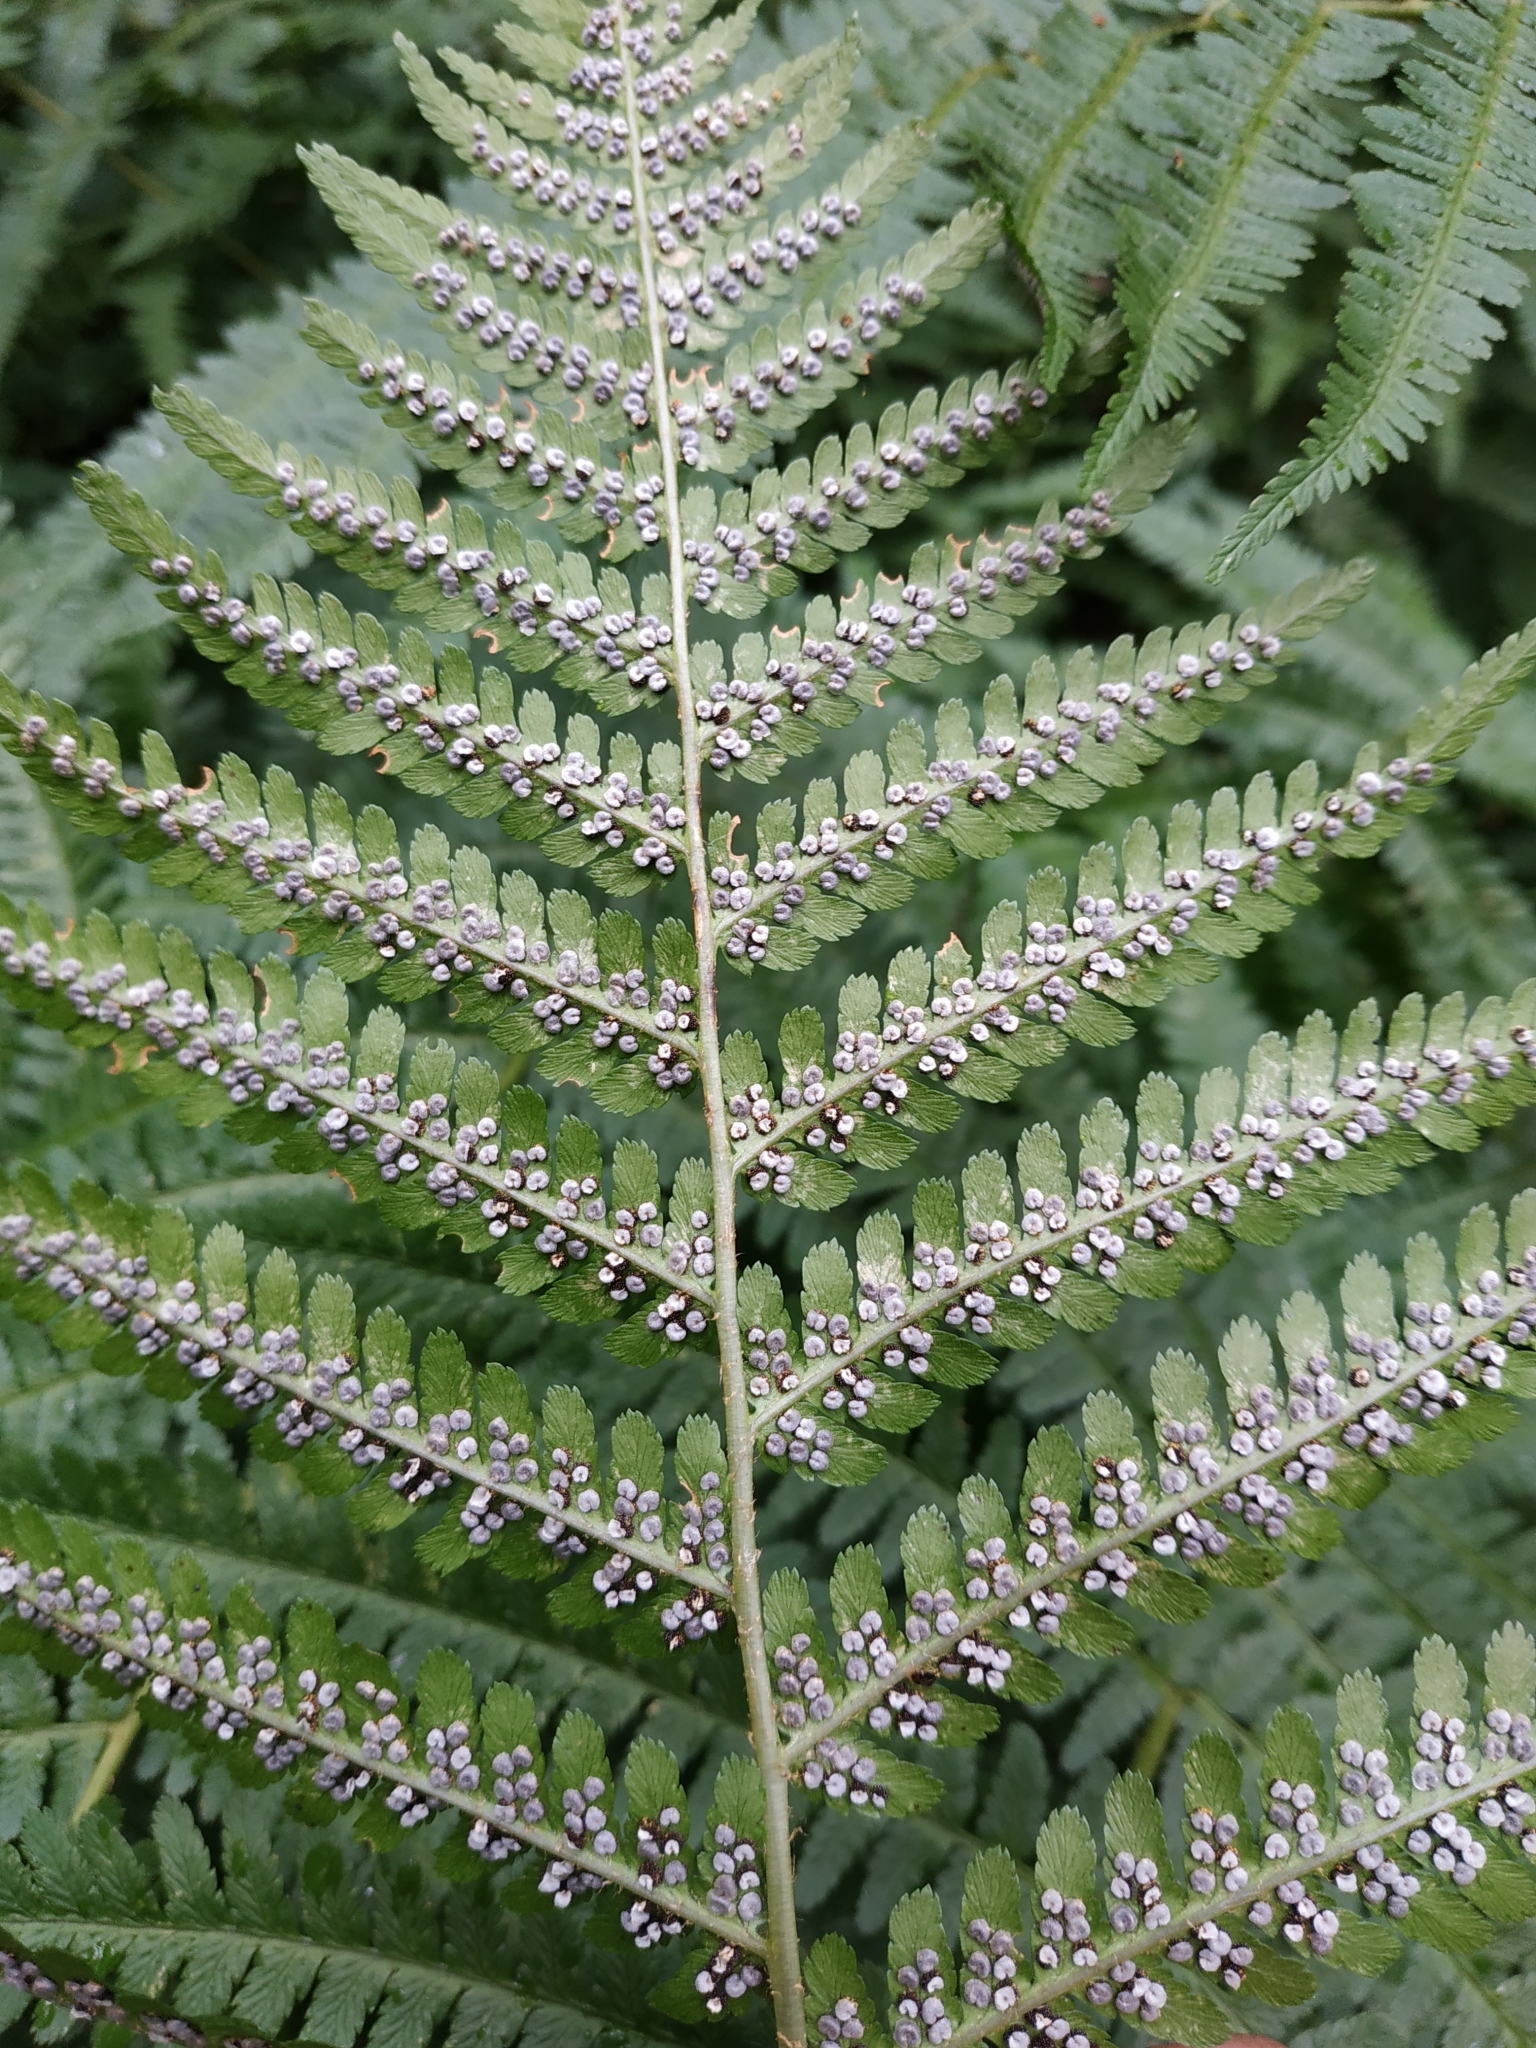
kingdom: Plantae
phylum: Tracheophyta
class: Polypodiopsida
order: Polypodiales
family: Dryopteridaceae
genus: Dryopteris
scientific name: Dryopteris filix-mas
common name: Male fern
